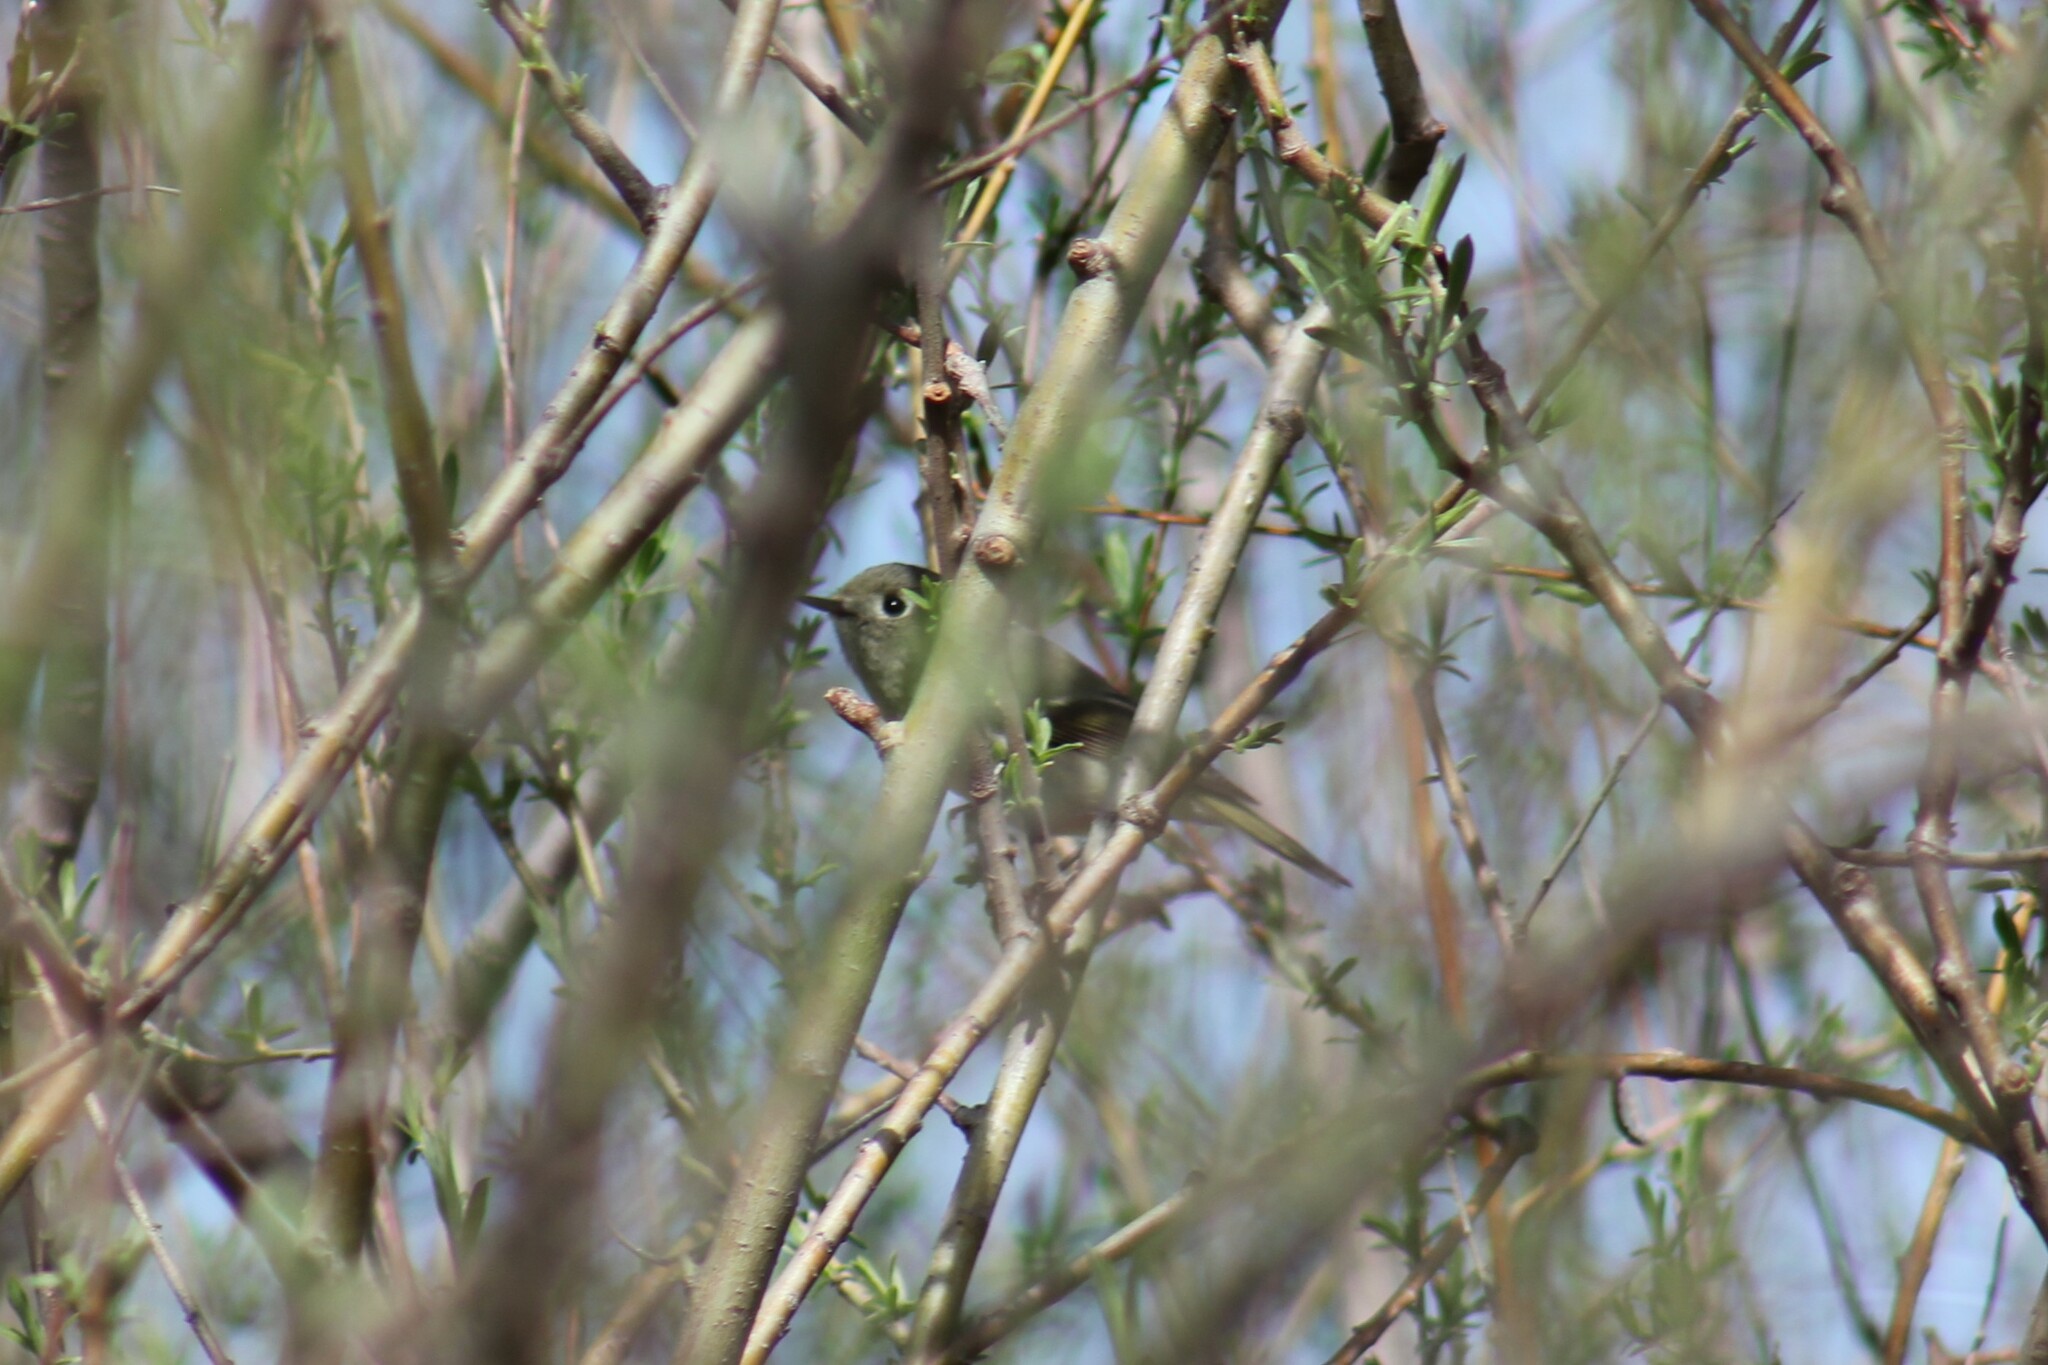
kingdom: Animalia
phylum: Chordata
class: Aves
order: Passeriformes
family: Regulidae
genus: Regulus
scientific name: Regulus calendula
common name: Ruby-crowned kinglet
